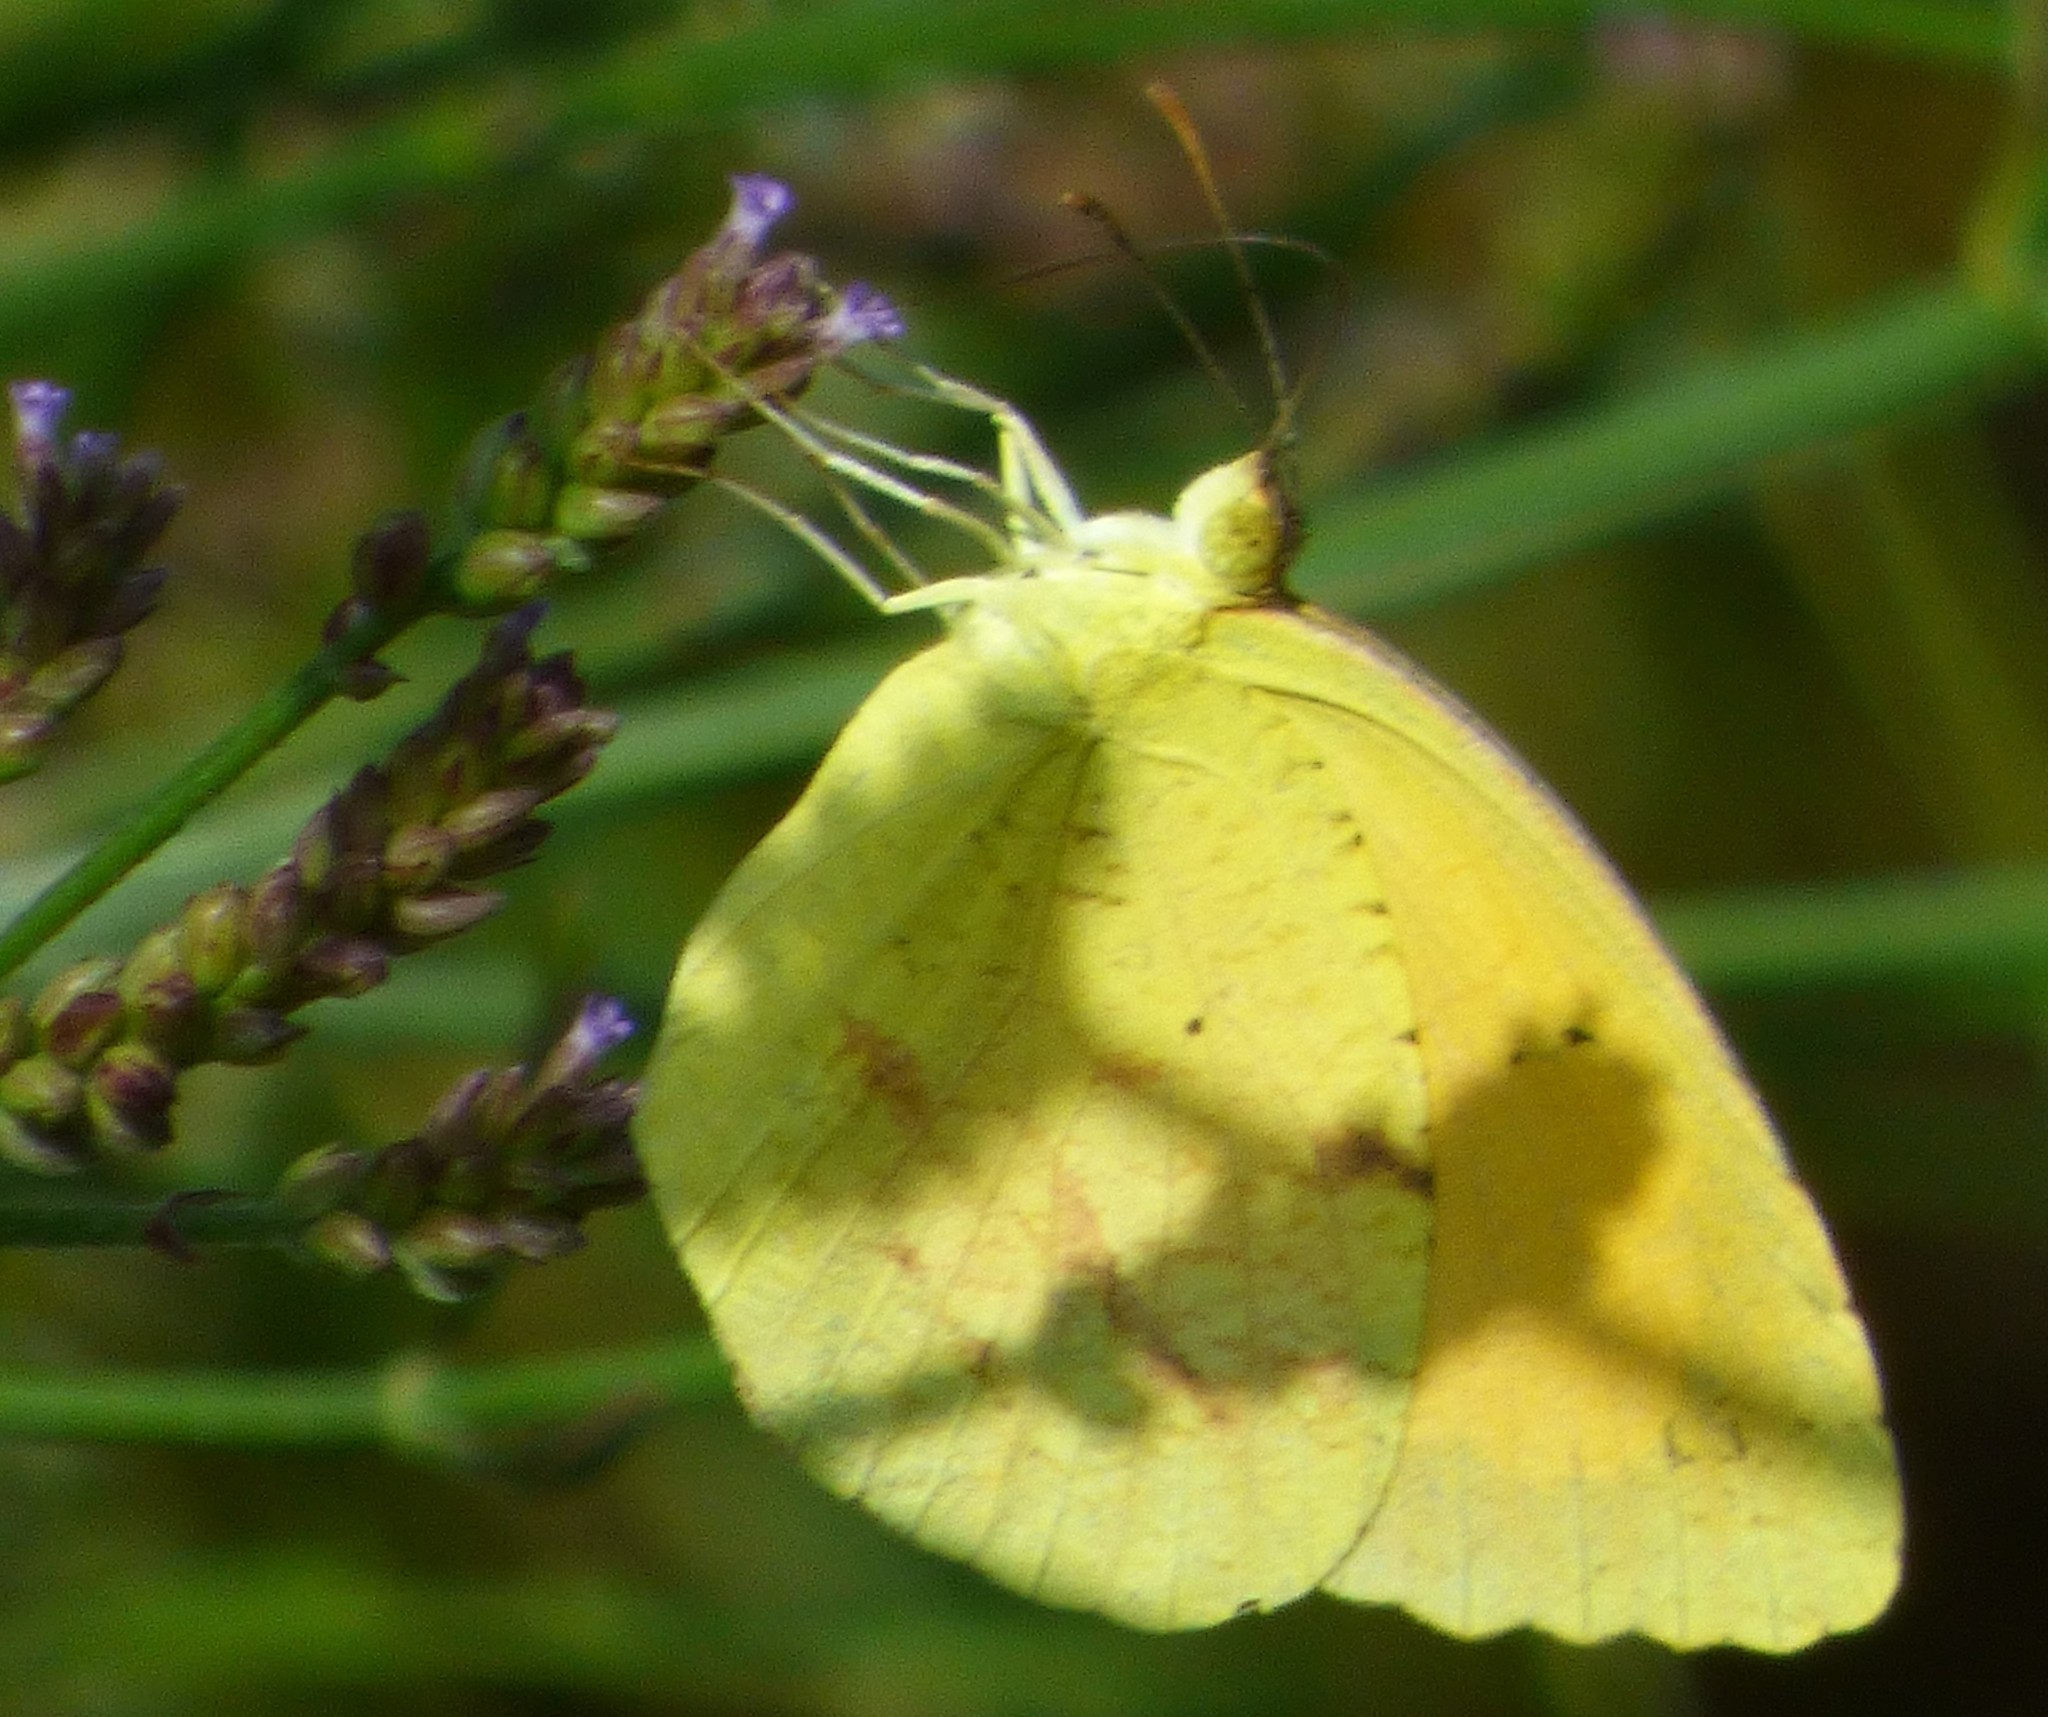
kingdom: Animalia
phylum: Arthropoda
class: Insecta
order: Lepidoptera
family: Pieridae
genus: Abaeis
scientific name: Abaeis nicippe
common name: Sleepy orange
